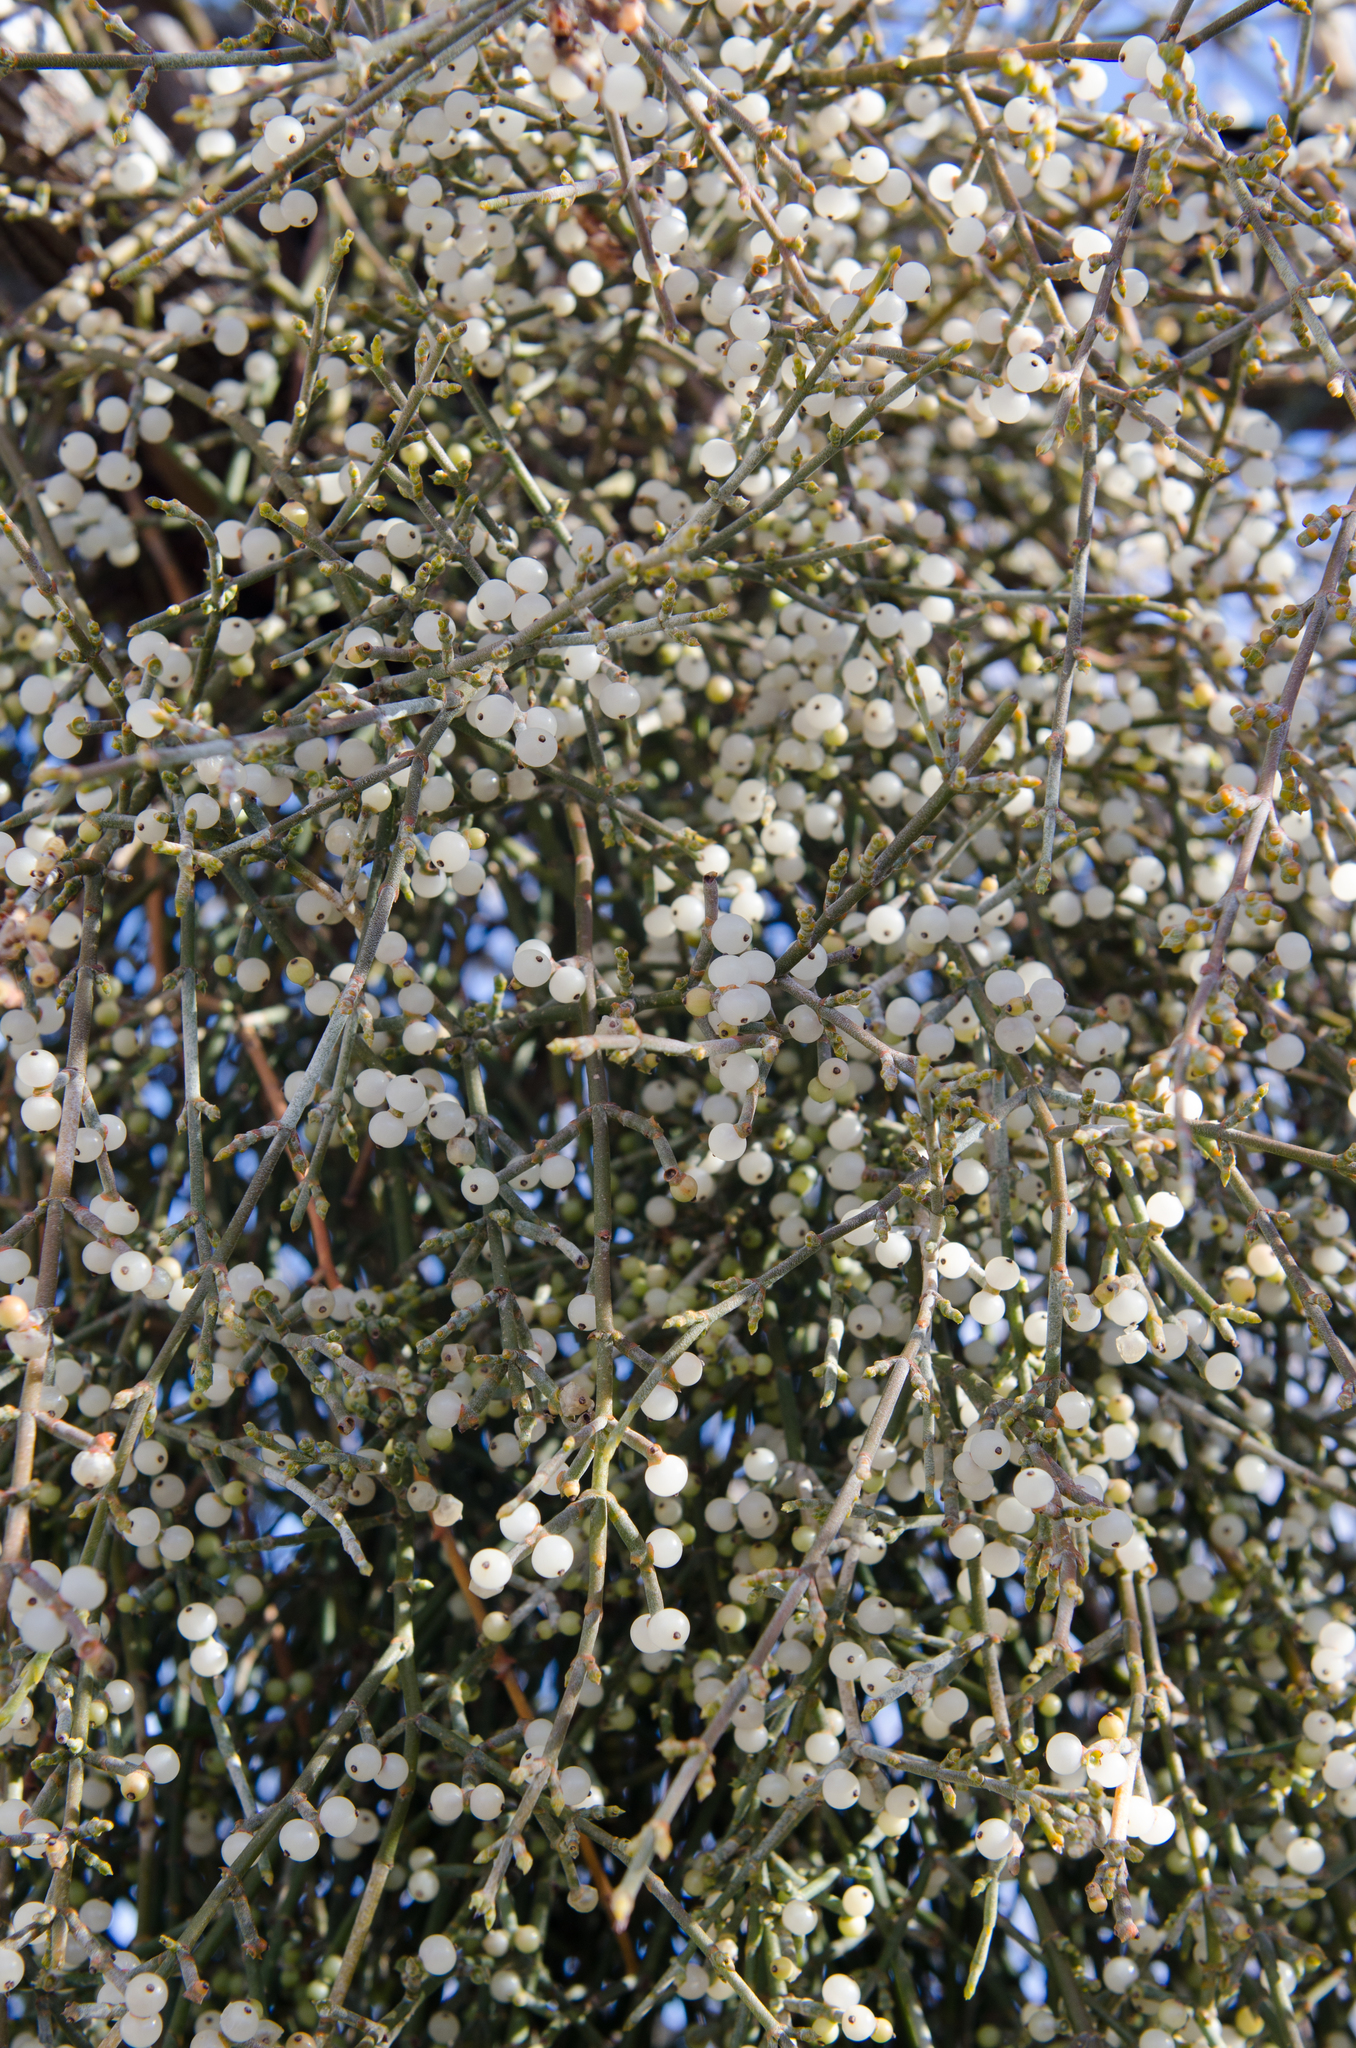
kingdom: Plantae
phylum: Tracheophyta
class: Magnoliopsida
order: Santalales
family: Viscaceae
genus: Phoradendron
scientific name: Phoradendron californicum
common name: Acacia mistletoe
